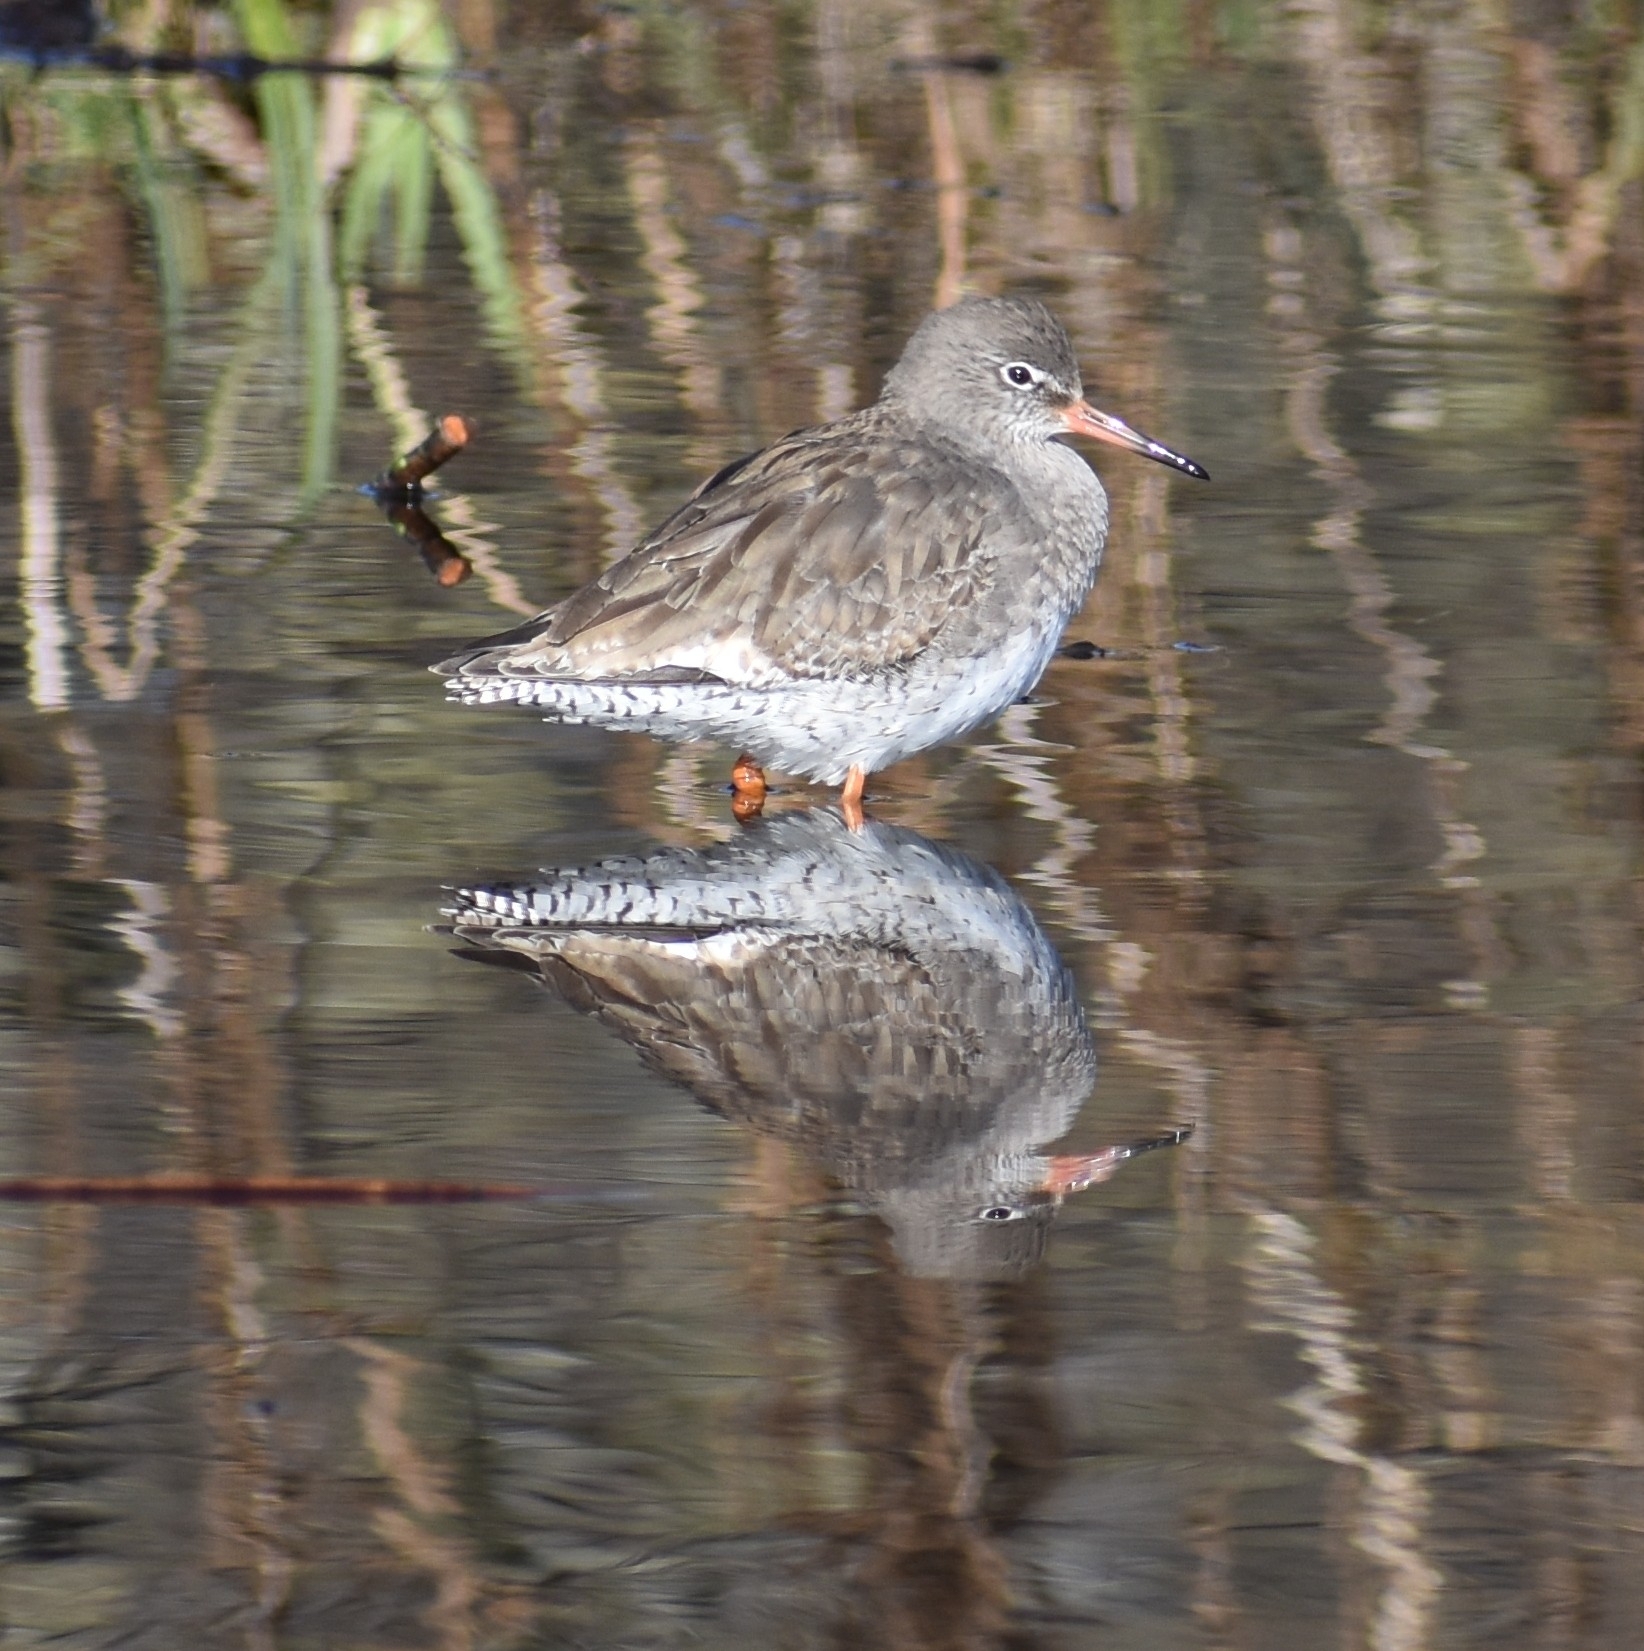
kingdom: Animalia
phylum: Chordata
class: Aves
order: Charadriiformes
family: Scolopacidae
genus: Tringa
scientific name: Tringa totanus
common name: Common redshank
